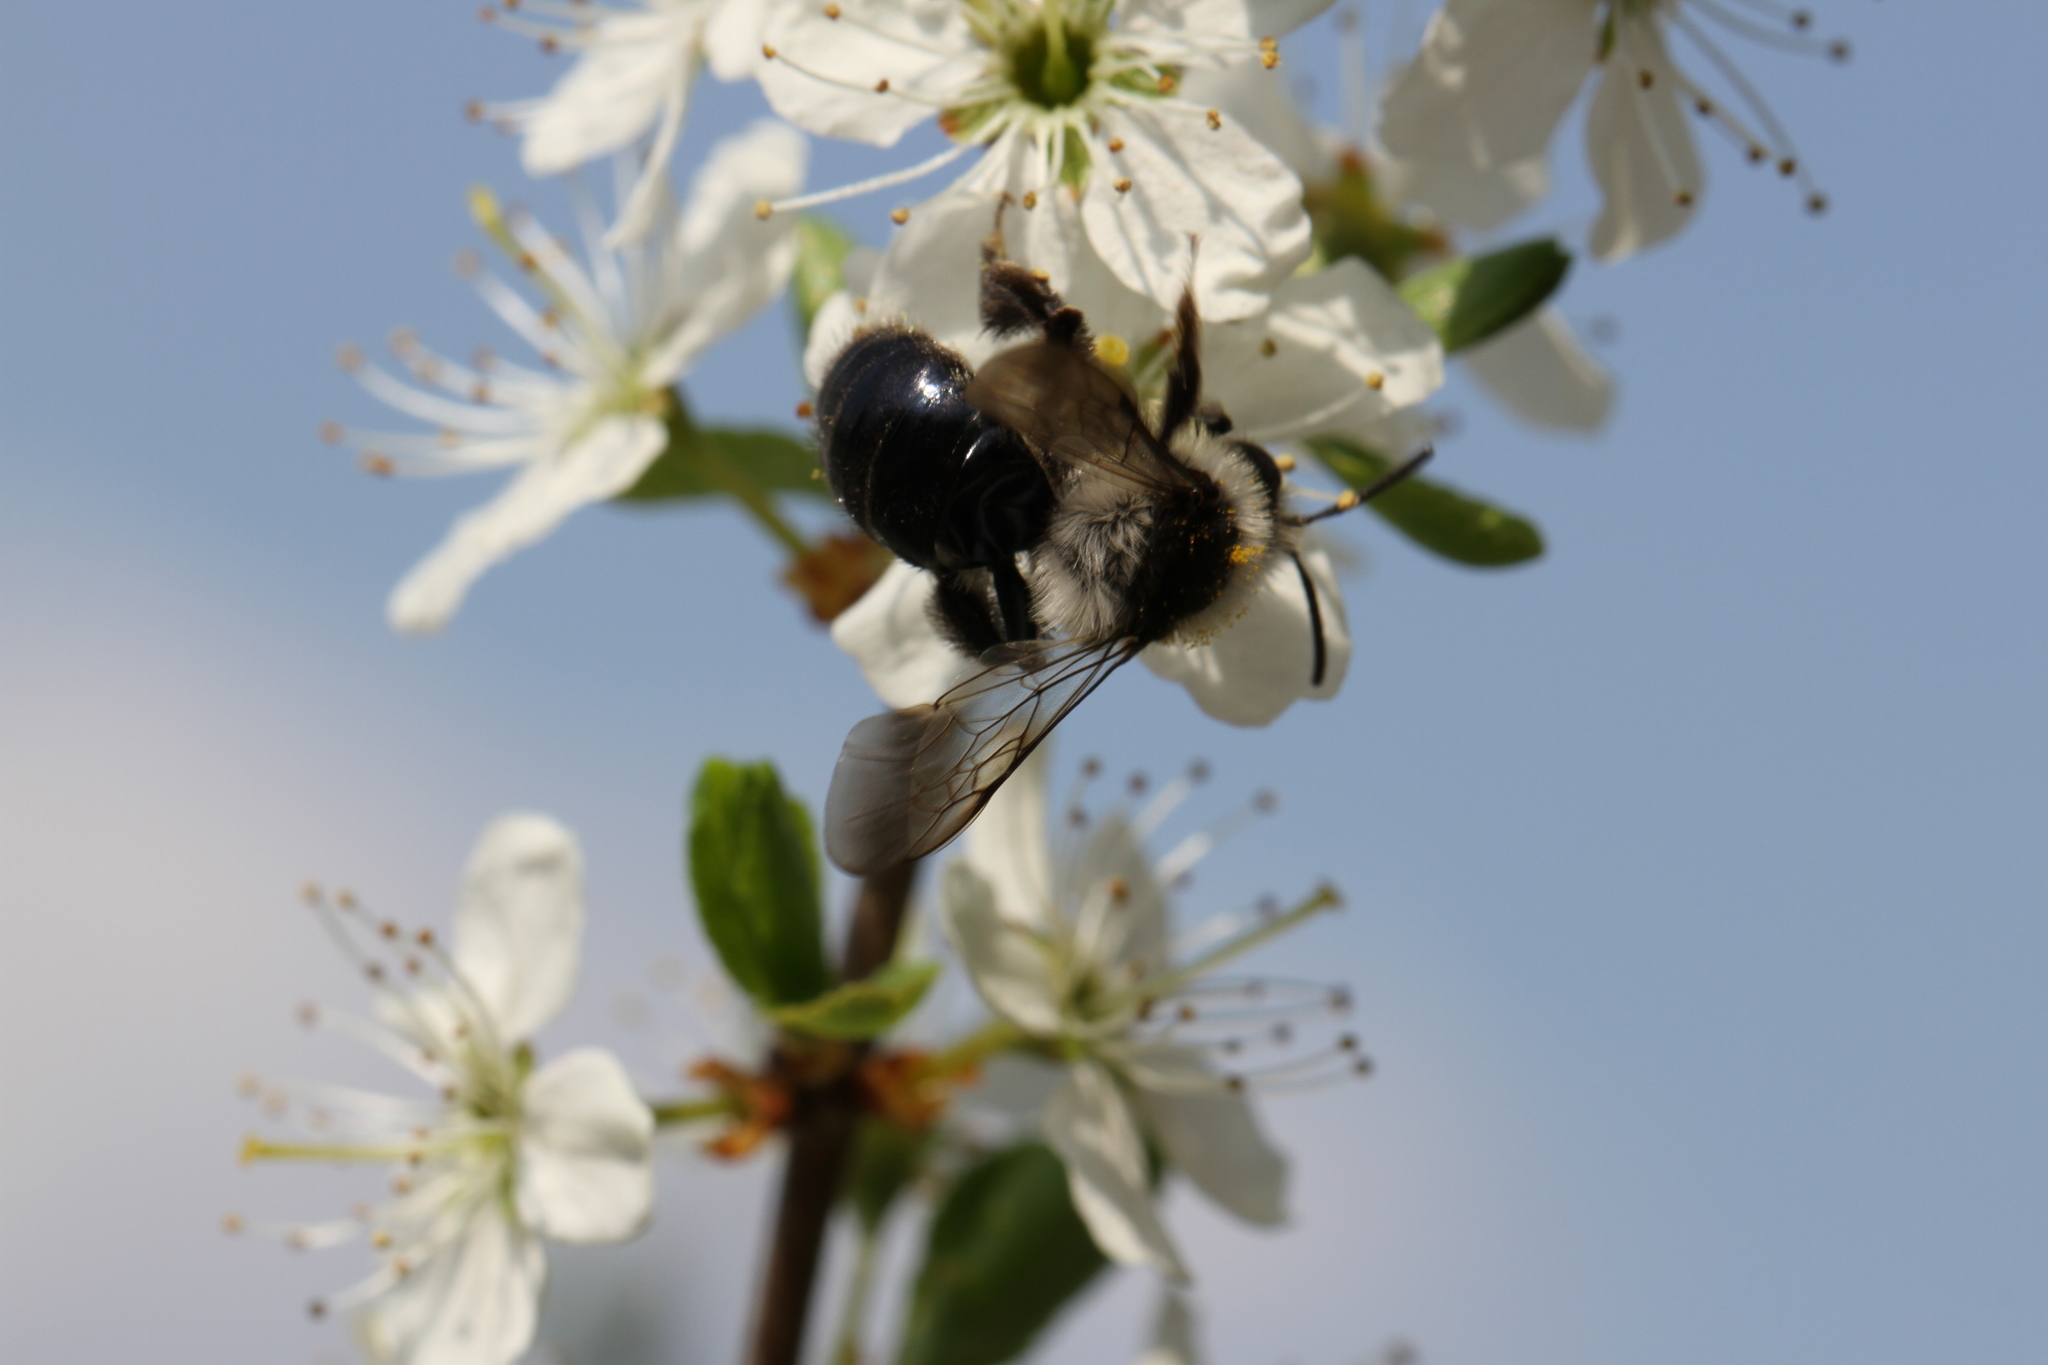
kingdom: Animalia
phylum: Arthropoda
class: Insecta
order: Hymenoptera
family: Andrenidae
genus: Andrena
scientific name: Andrena cineraria
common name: Ashy mining bee
